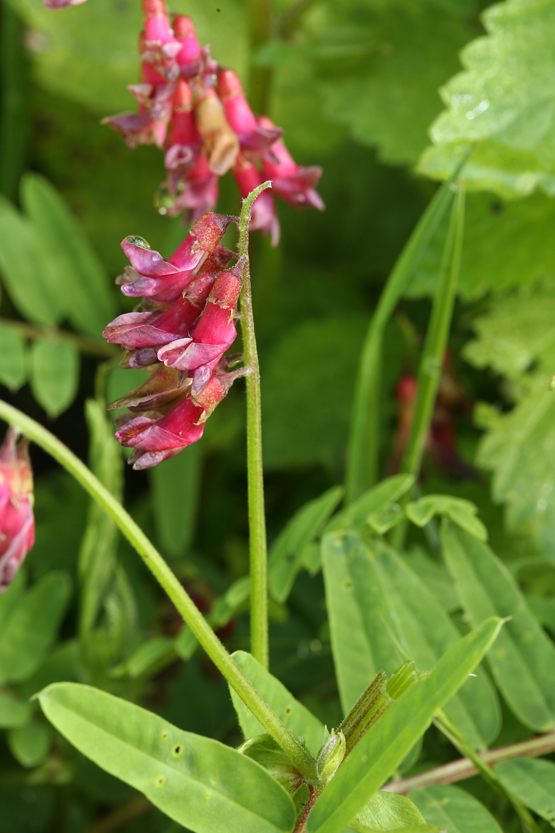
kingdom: Plantae
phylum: Tracheophyta
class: Magnoliopsida
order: Fabales
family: Fabaceae
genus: Vicia
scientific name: Vicia
